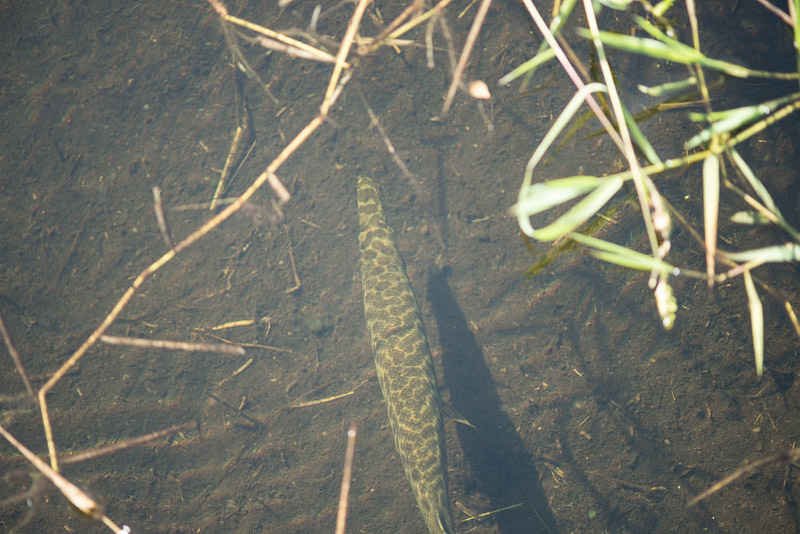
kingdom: Animalia
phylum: Chordata
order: Lepisosteiformes
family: Lepisosteidae
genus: Lepisosteus
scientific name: Lepisosteus platyrhincus
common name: Florida gar
